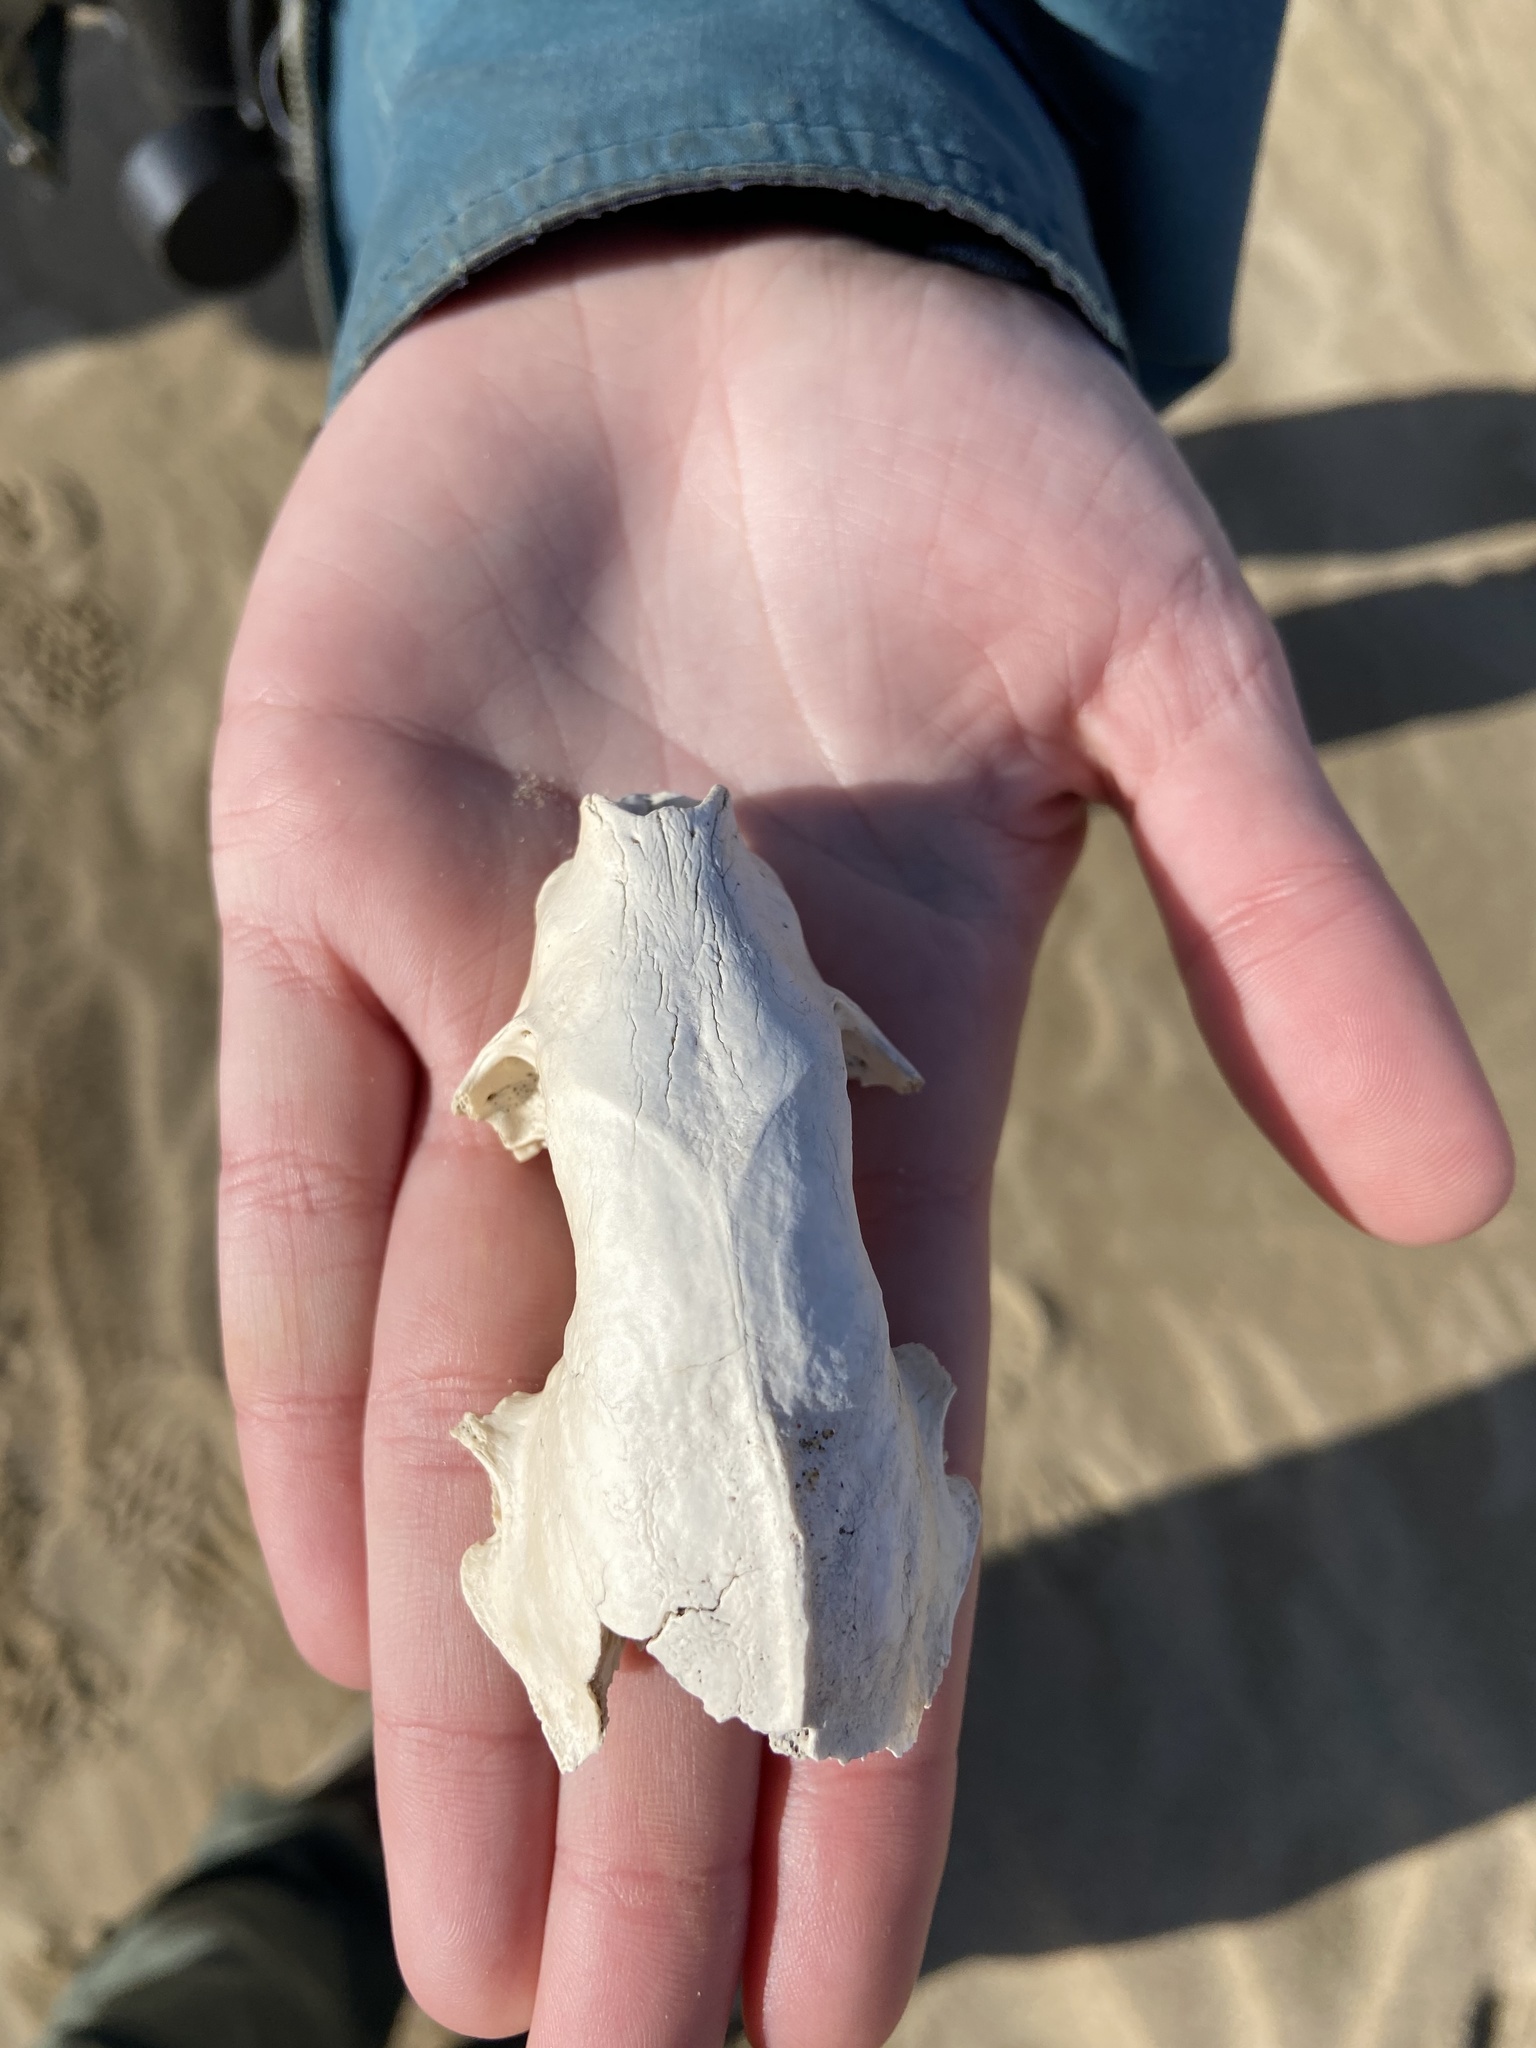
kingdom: Animalia
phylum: Chordata
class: Mammalia
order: Carnivora
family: Mephitidae
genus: Mephitis
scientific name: Mephitis mephitis
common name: Striped skunk
